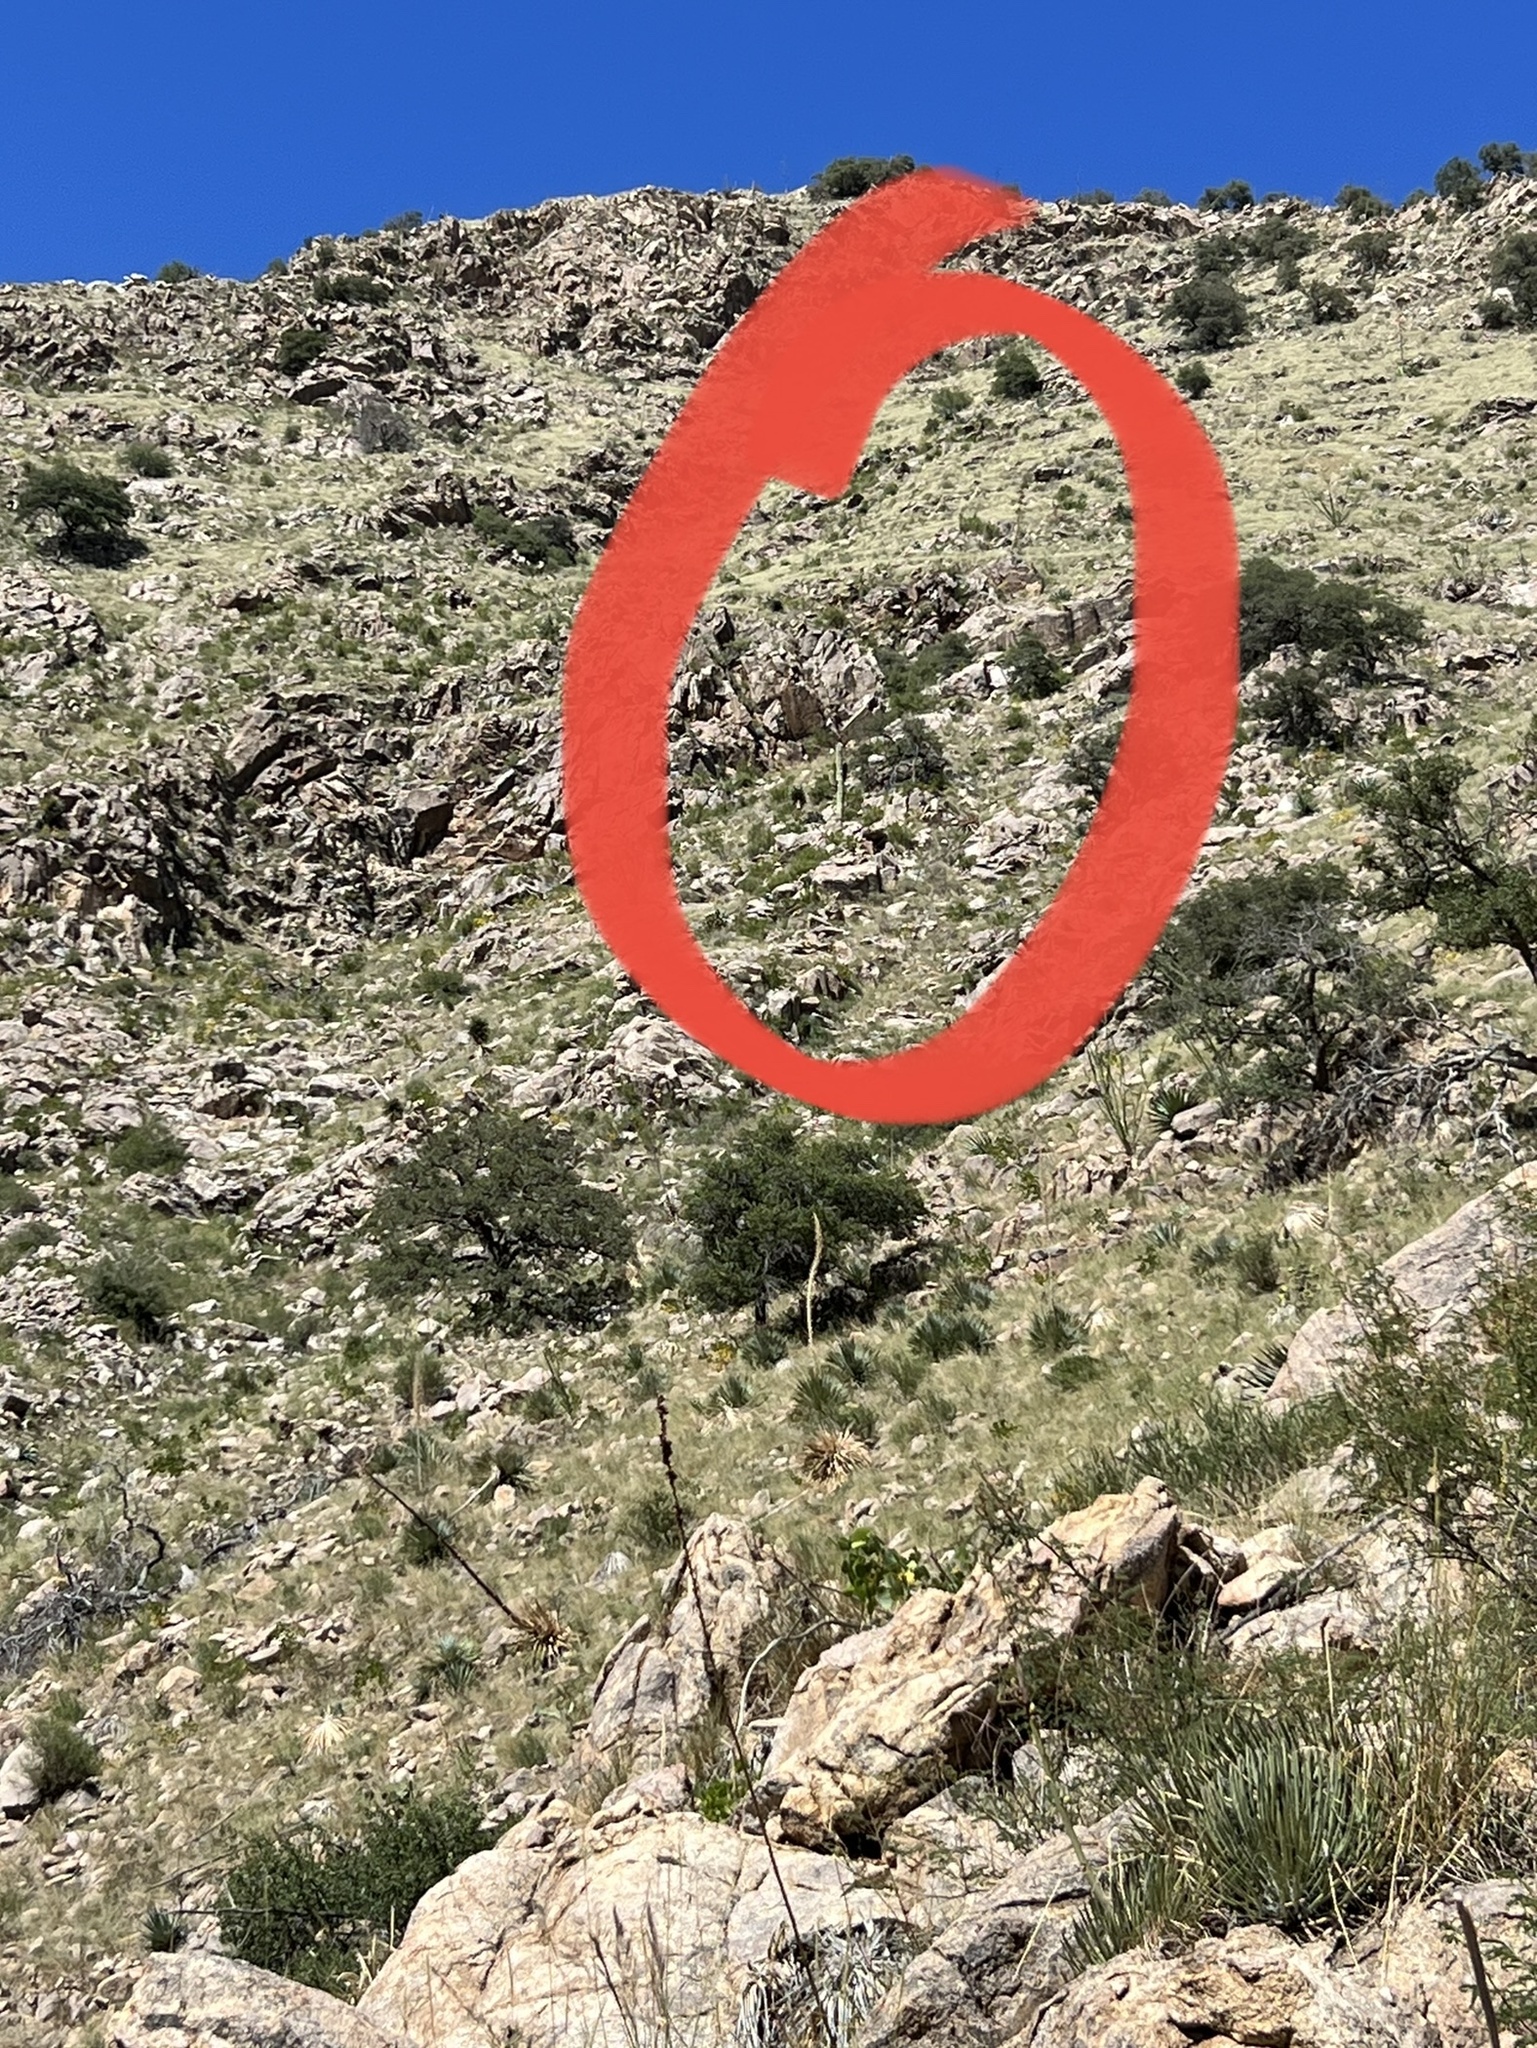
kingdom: Plantae
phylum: Tracheophyta
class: Magnoliopsida
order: Caryophyllales
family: Cactaceae
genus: Carnegiea
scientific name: Carnegiea gigantea
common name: Saguaro
